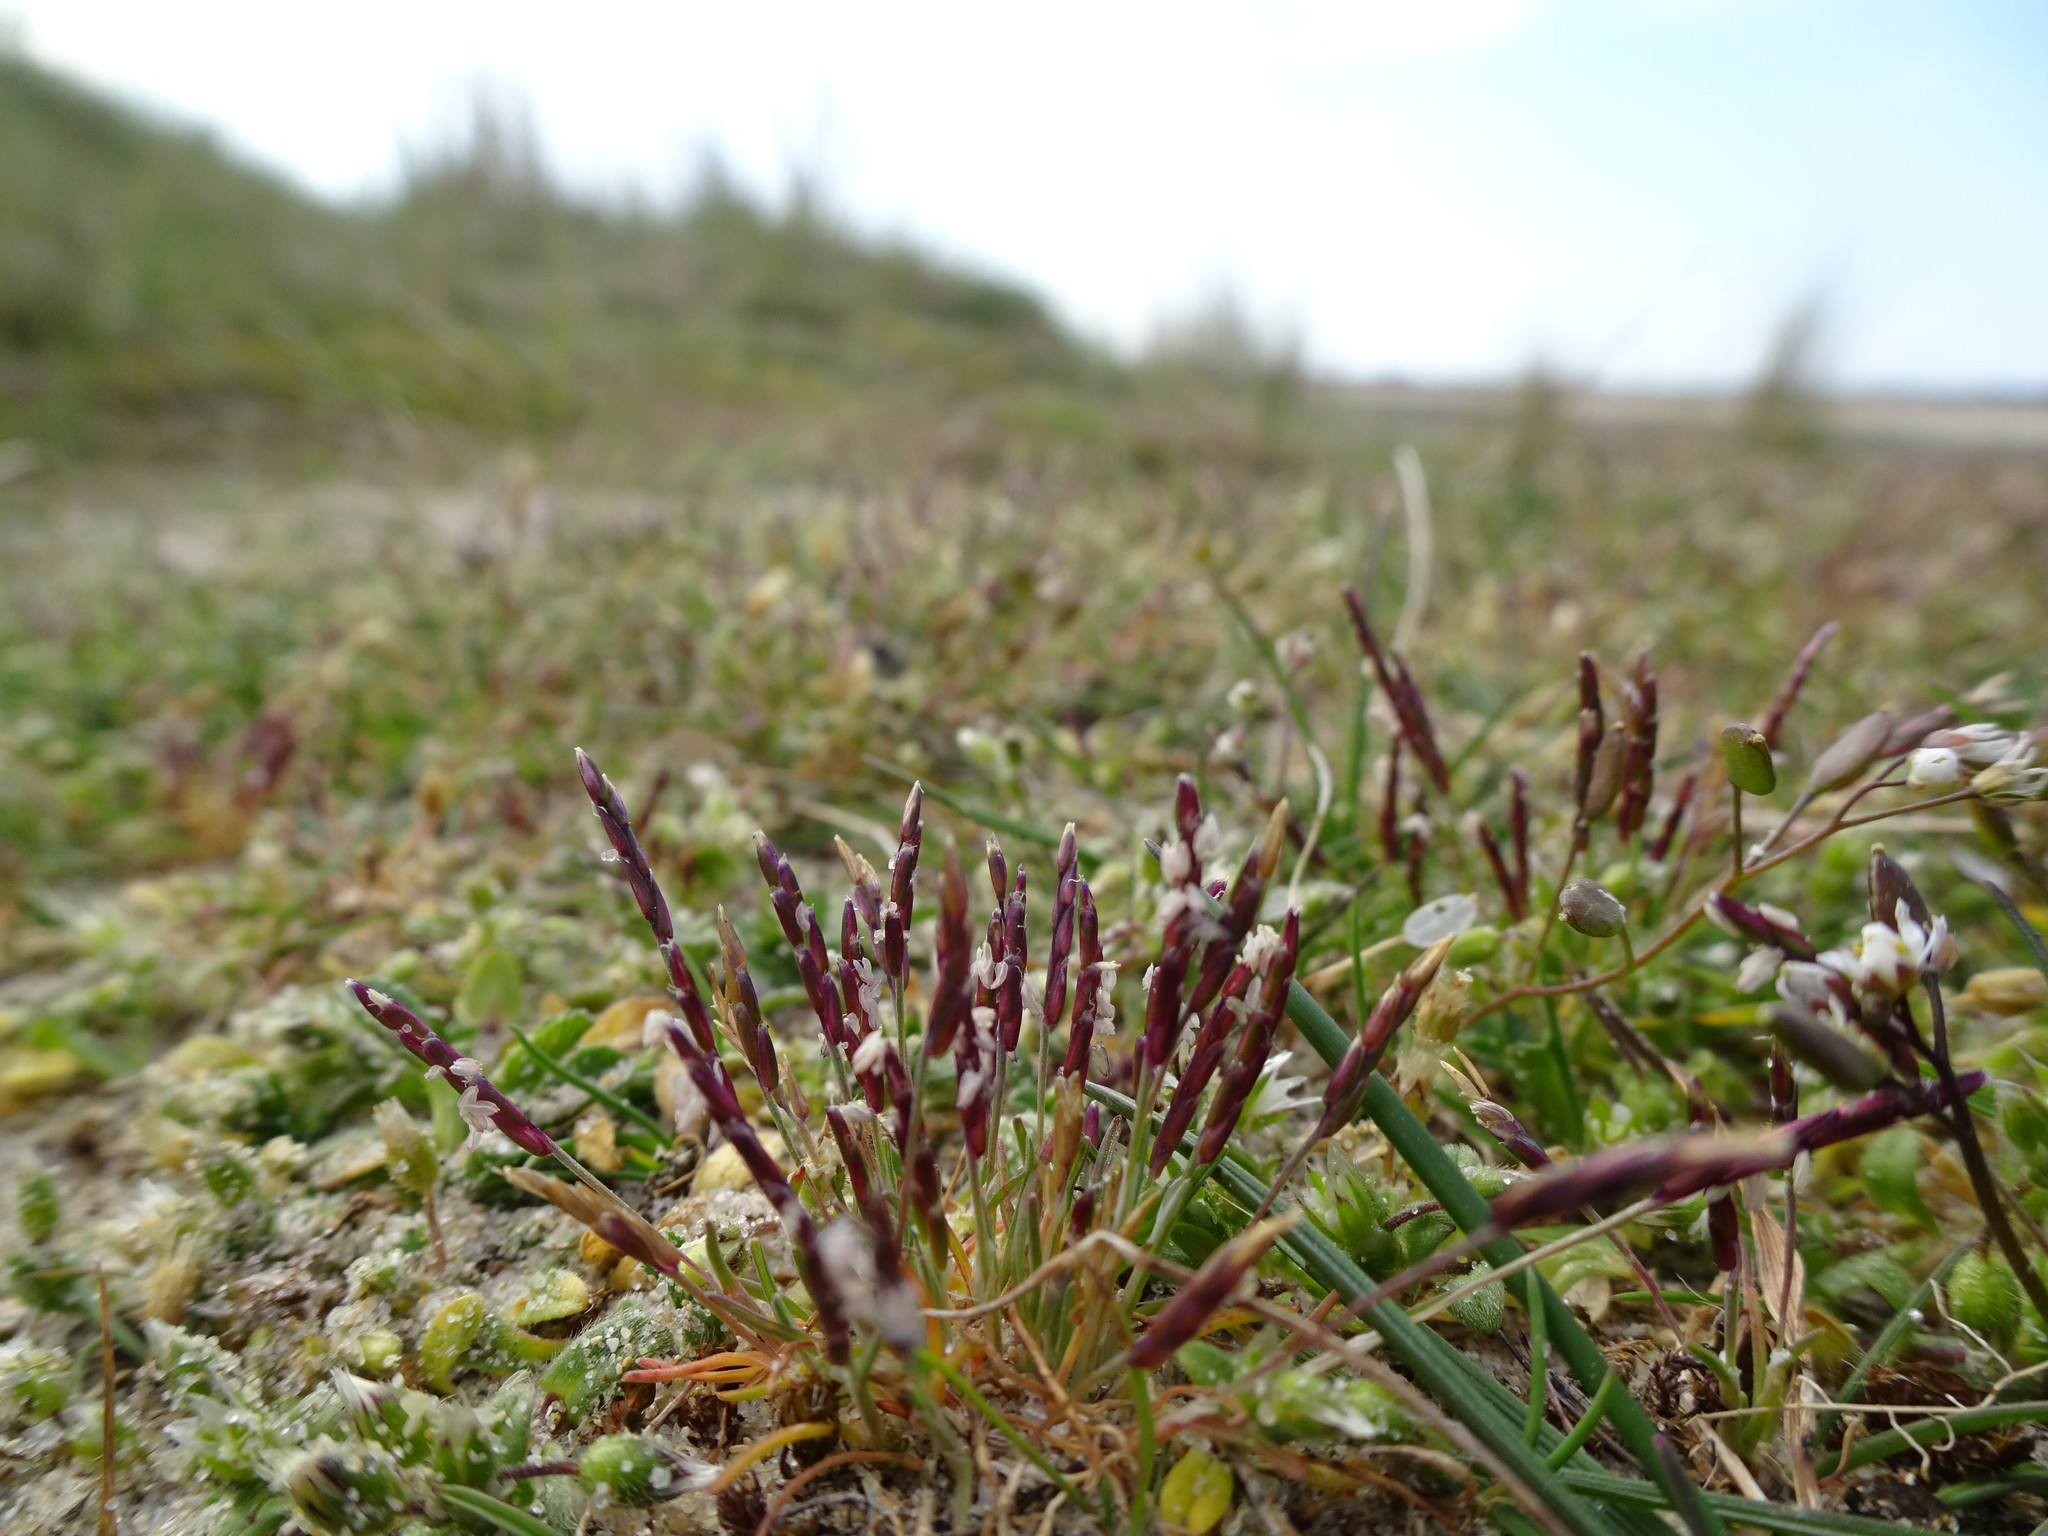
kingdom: Plantae
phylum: Tracheophyta
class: Liliopsida
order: Poales
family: Poaceae
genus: Mibora
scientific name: Mibora minima
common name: Early sand-grass
